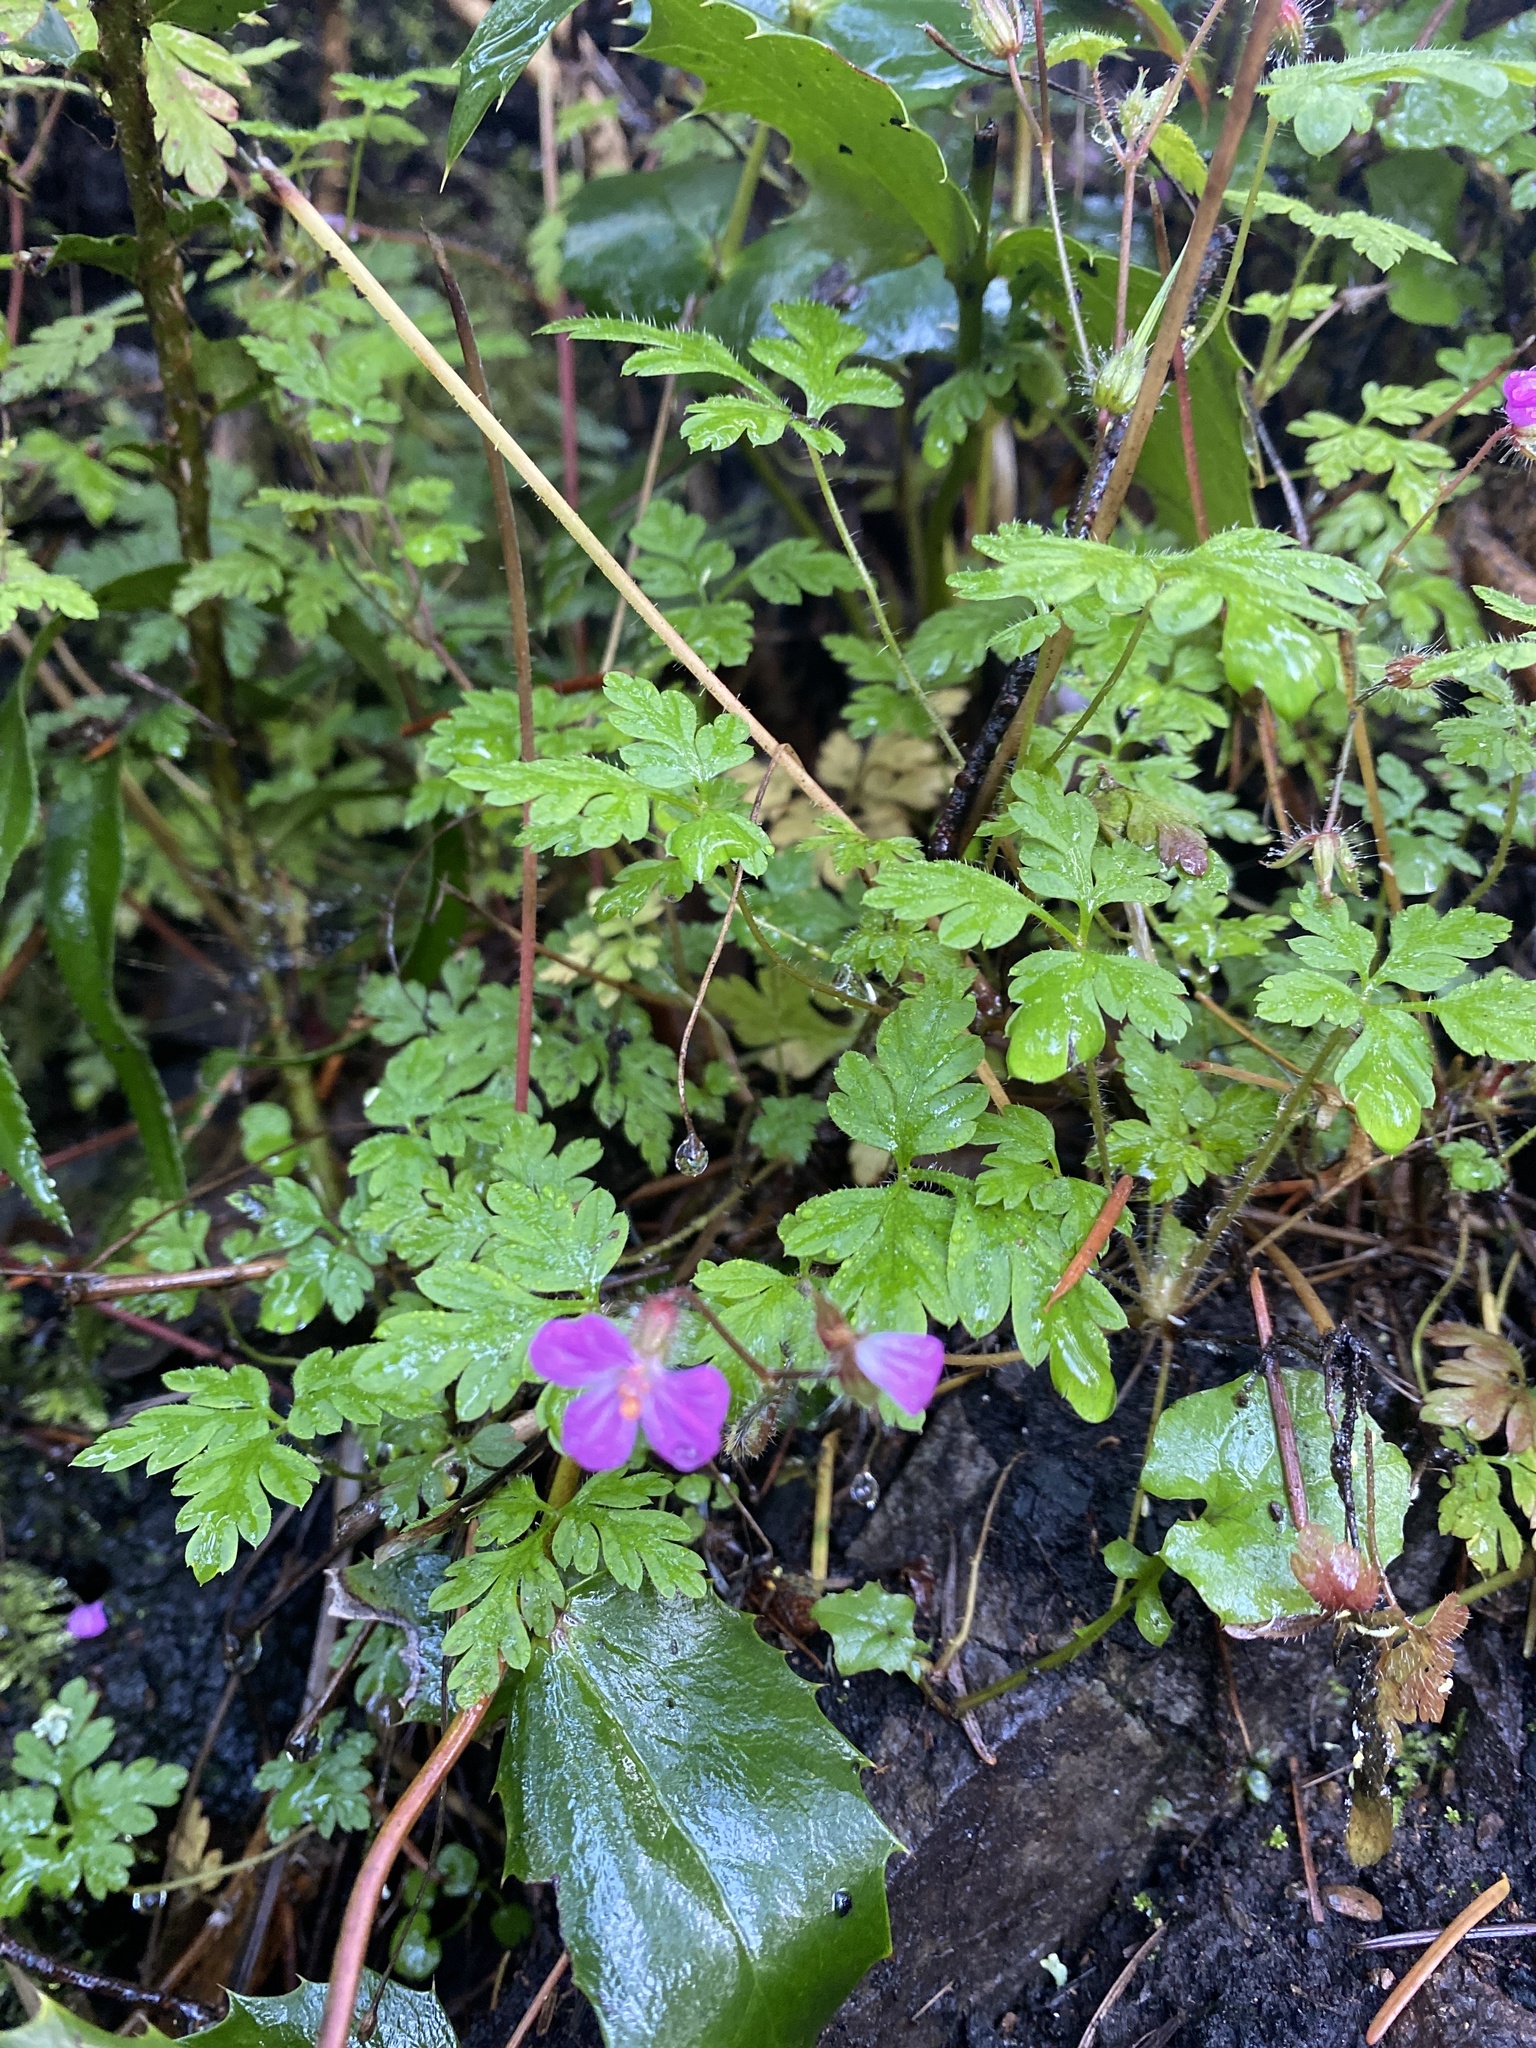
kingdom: Plantae
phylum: Tracheophyta
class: Magnoliopsida
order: Geraniales
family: Geraniaceae
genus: Geranium
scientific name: Geranium robertianum
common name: Herb-robert
